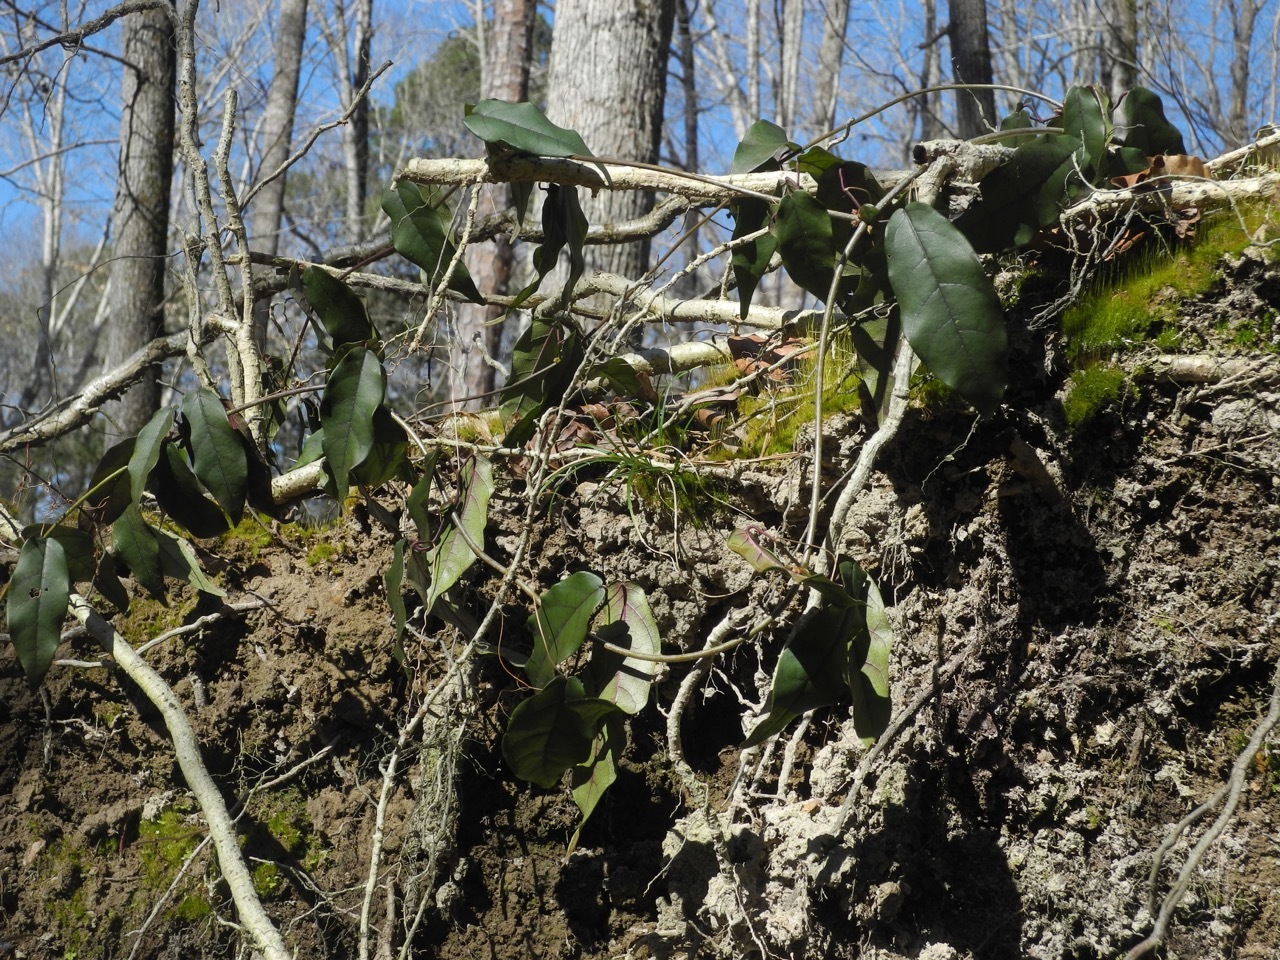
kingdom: Plantae
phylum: Tracheophyta
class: Magnoliopsida
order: Lamiales
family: Bignoniaceae
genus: Bignonia
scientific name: Bignonia capreolata
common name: Crossvine
